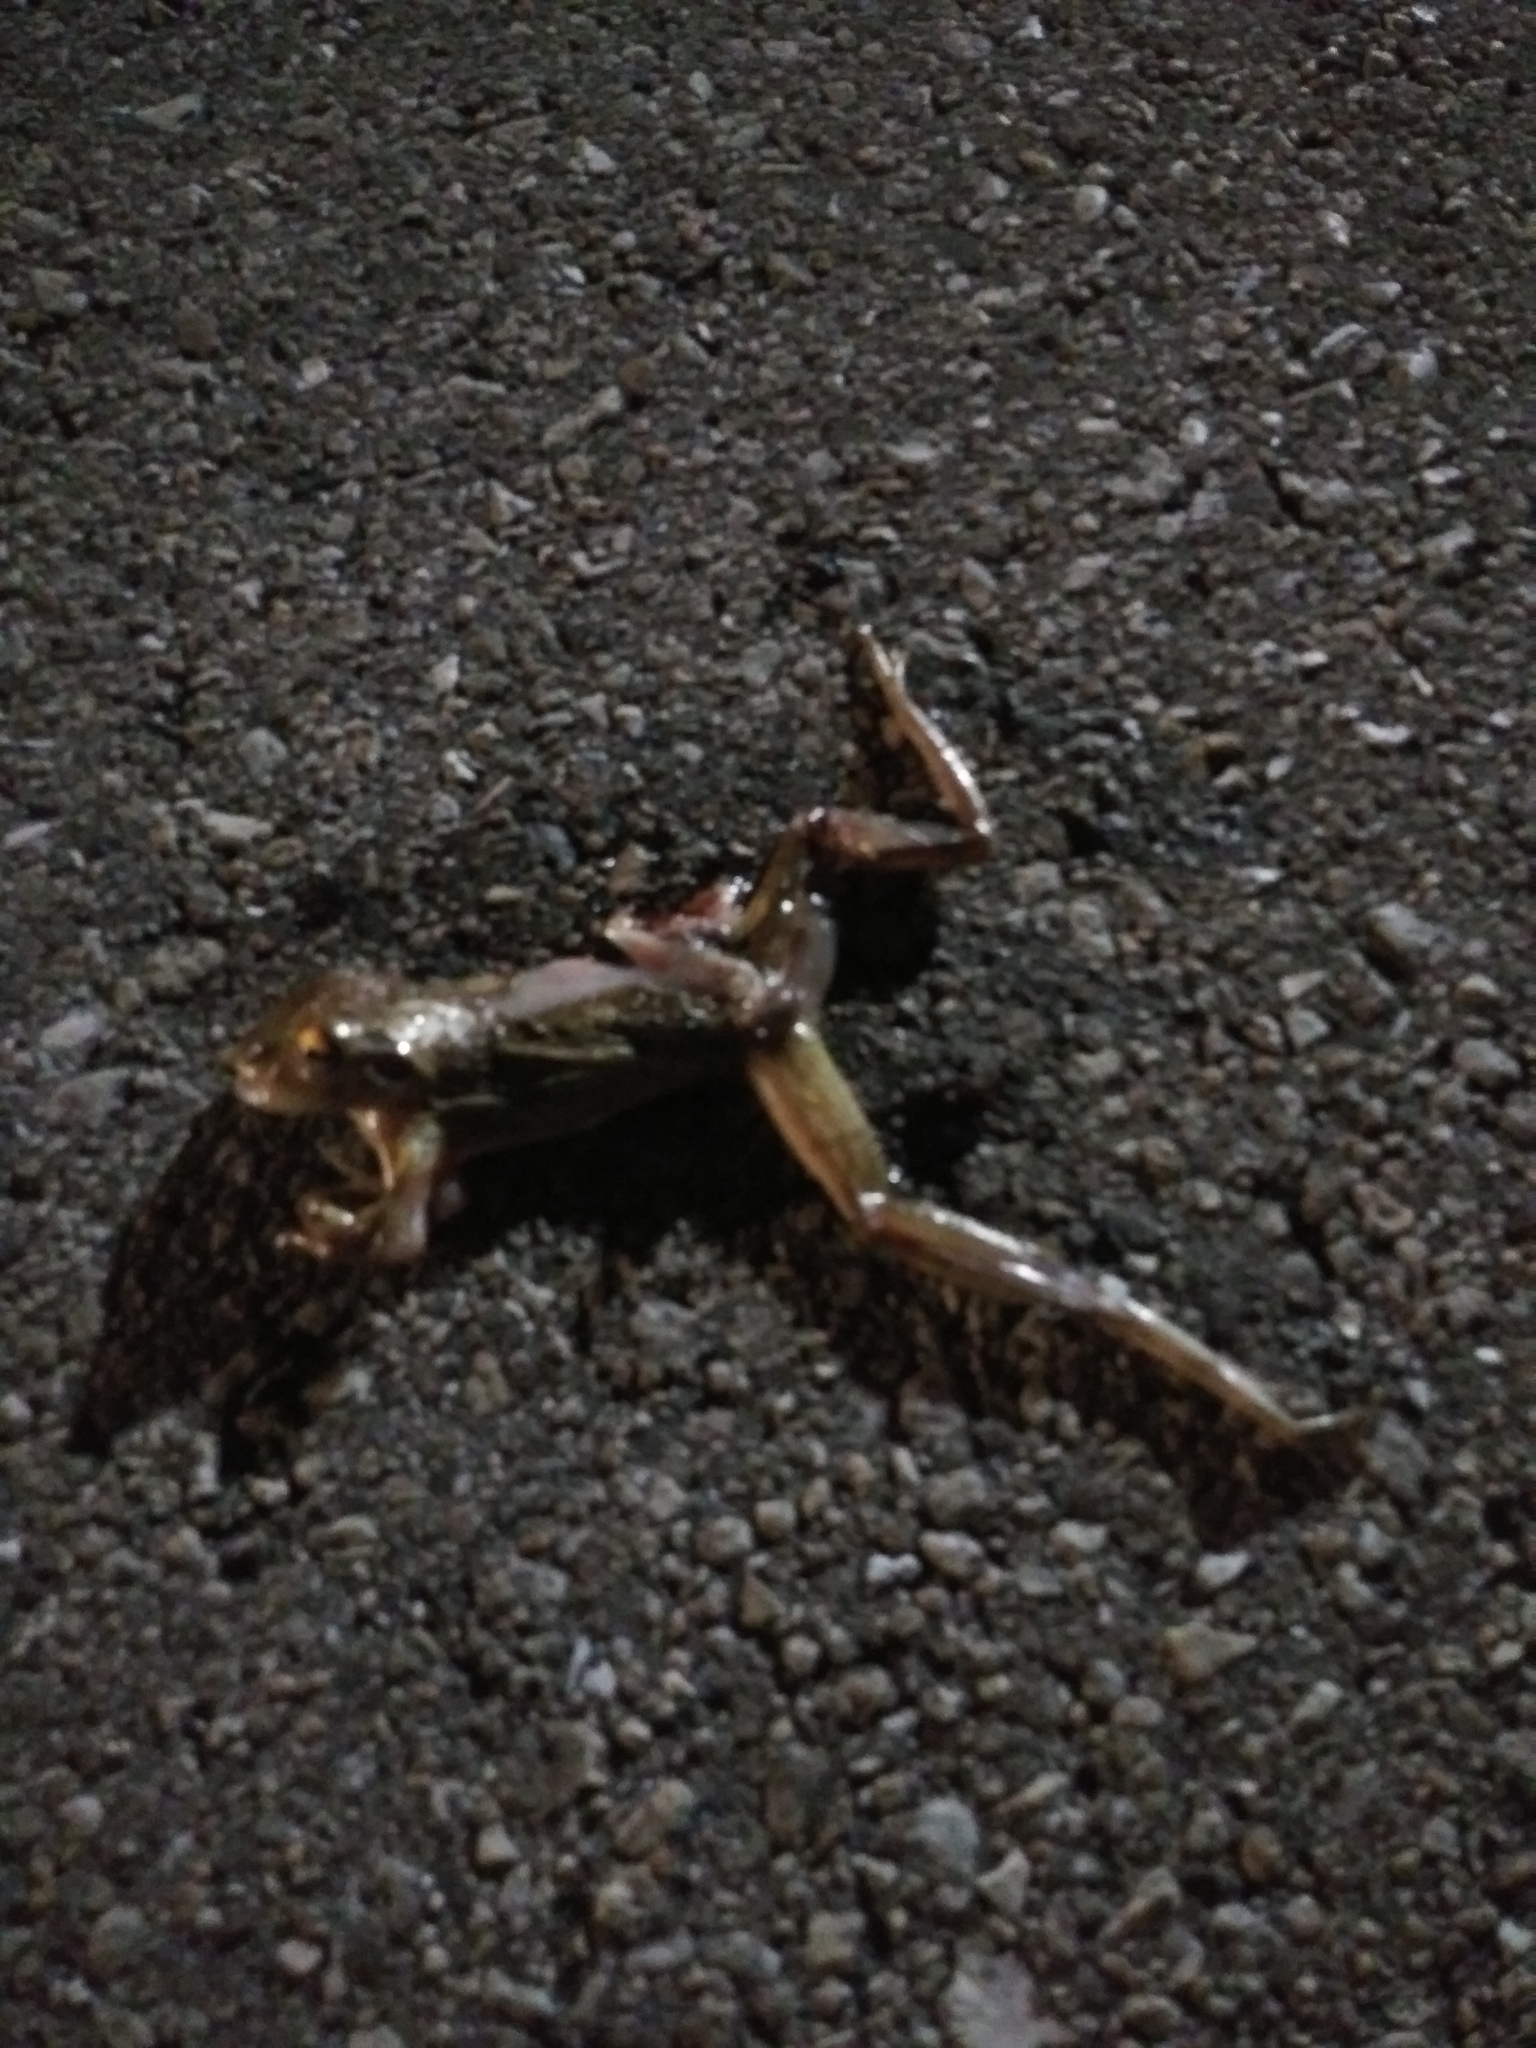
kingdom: Animalia
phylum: Chordata
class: Amphibia
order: Anura
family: Hylidae
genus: Osteopilus
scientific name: Osteopilus septentrionalis
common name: Cuban treefrog
